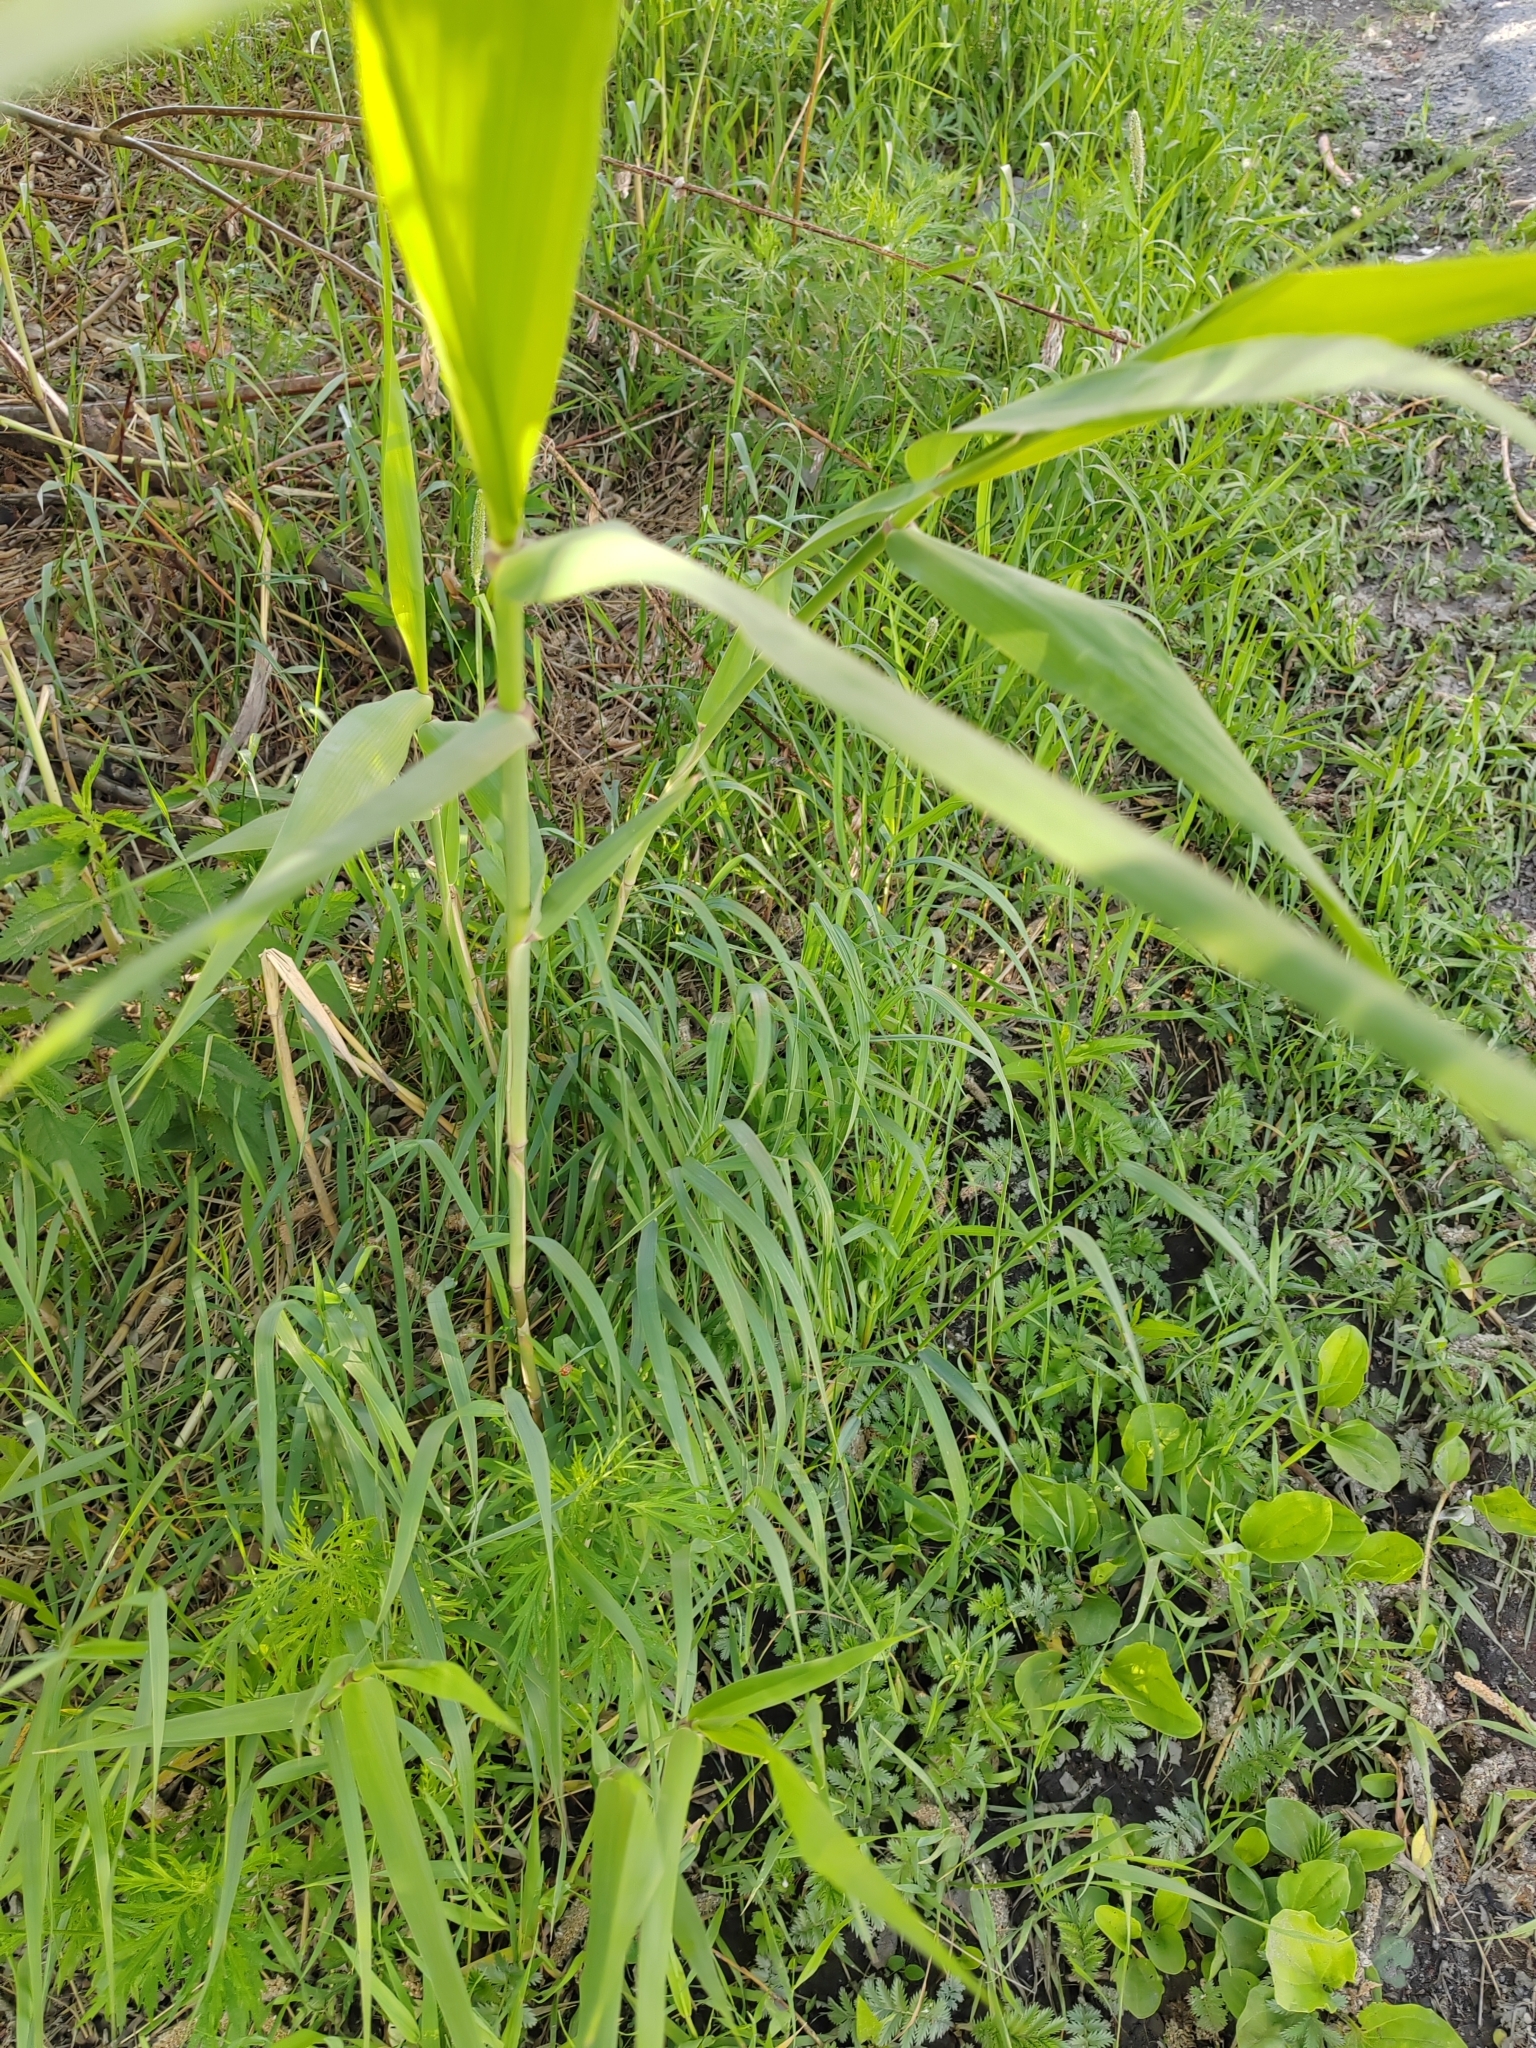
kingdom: Plantae
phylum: Tracheophyta
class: Liliopsida
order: Poales
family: Poaceae
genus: Phragmites
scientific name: Phragmites australis
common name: Common reed
